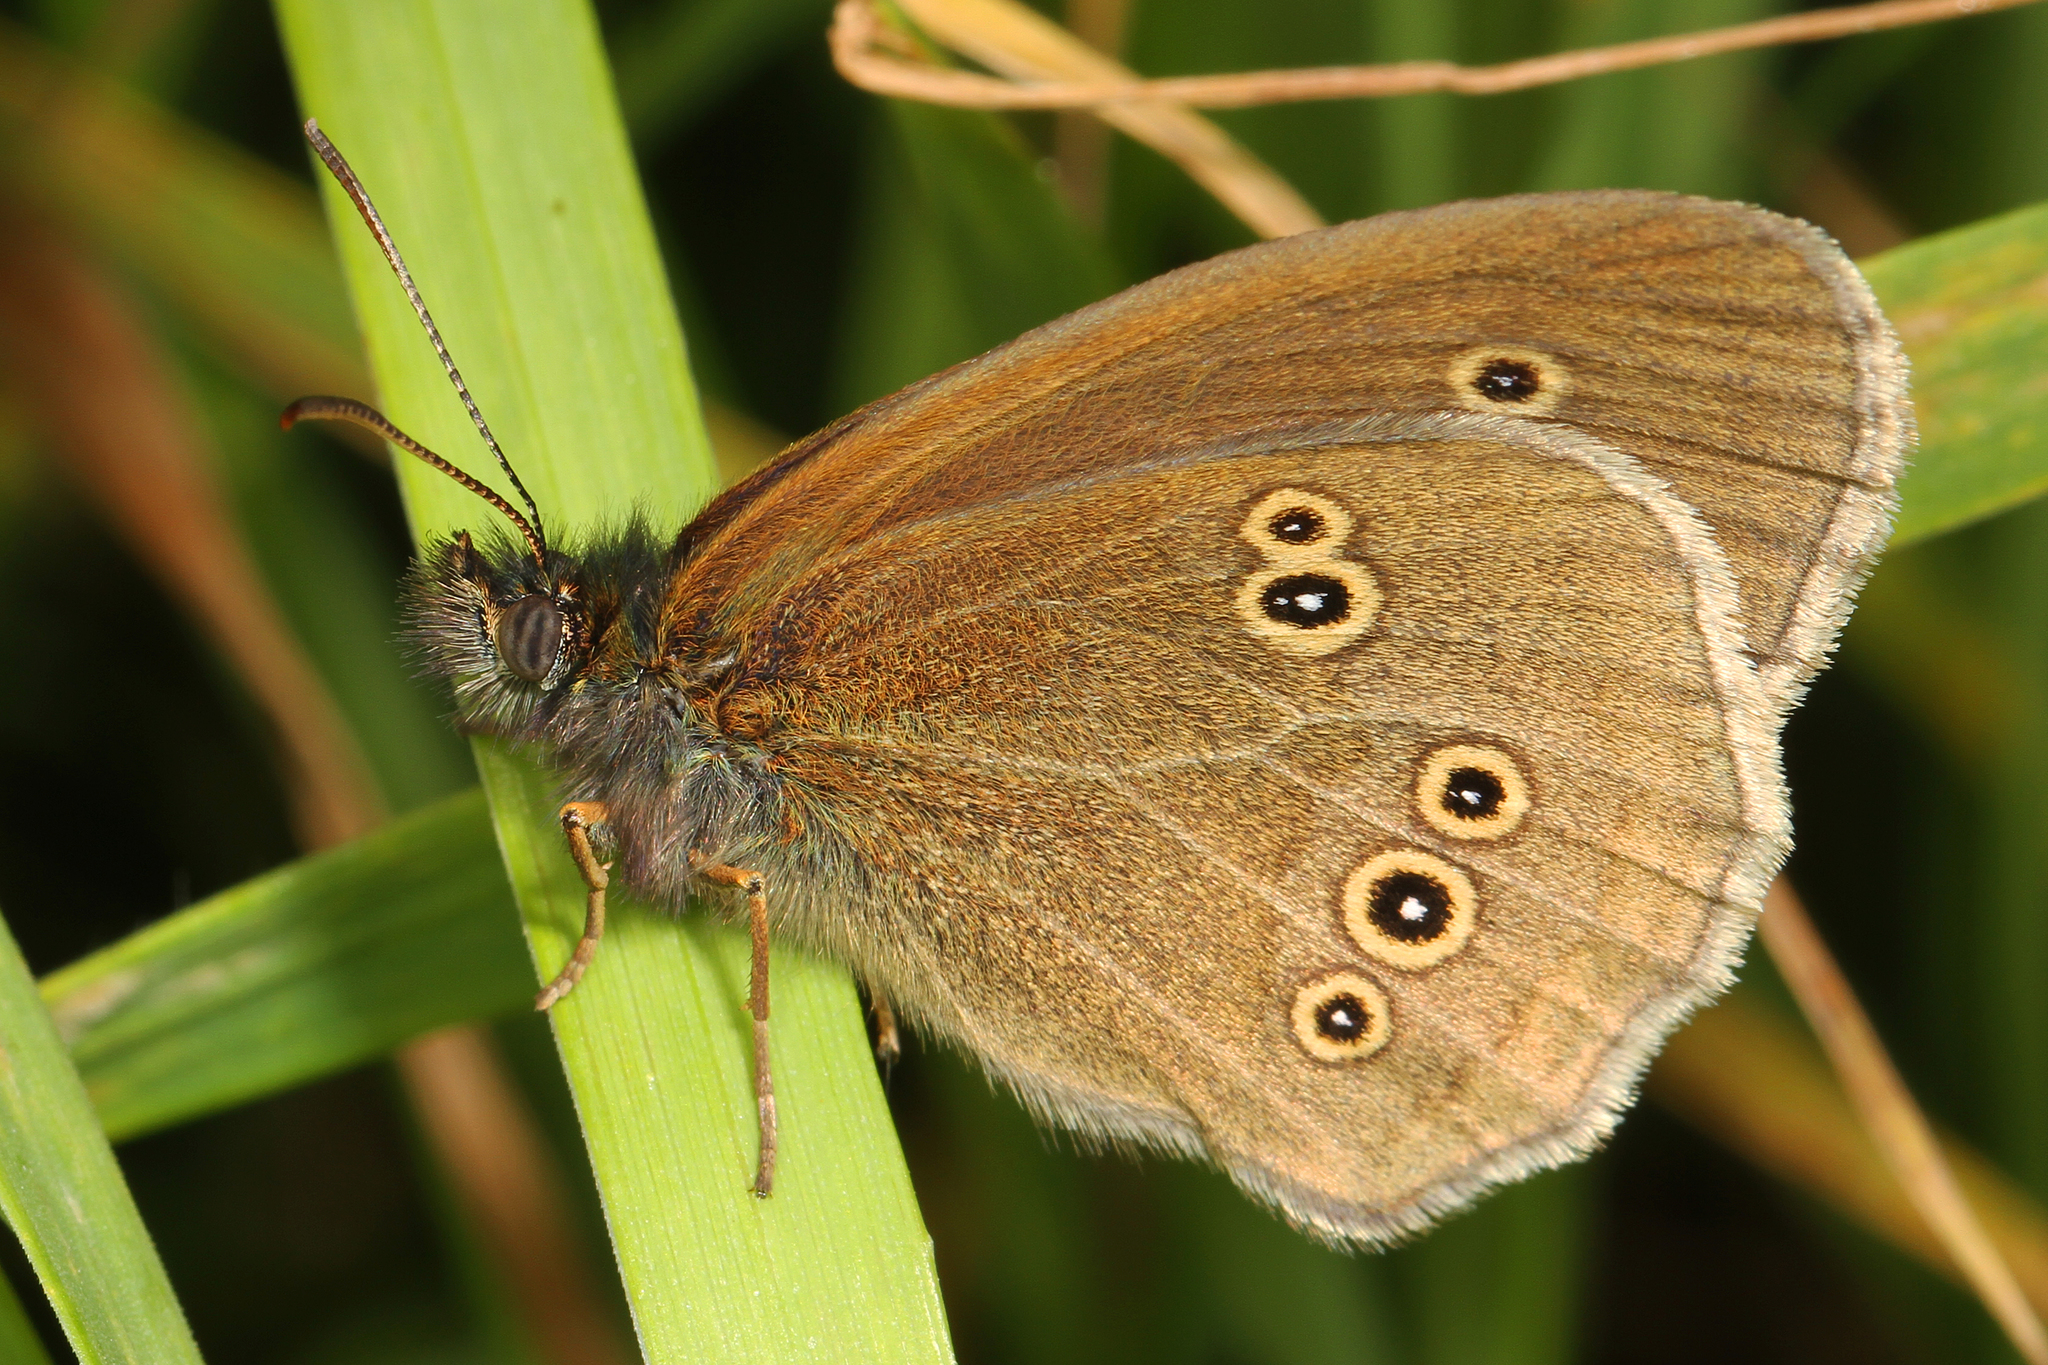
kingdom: Animalia
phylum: Arthropoda
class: Insecta
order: Lepidoptera
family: Nymphalidae
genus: Aphantopus
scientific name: Aphantopus hyperantus
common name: Ringlet
